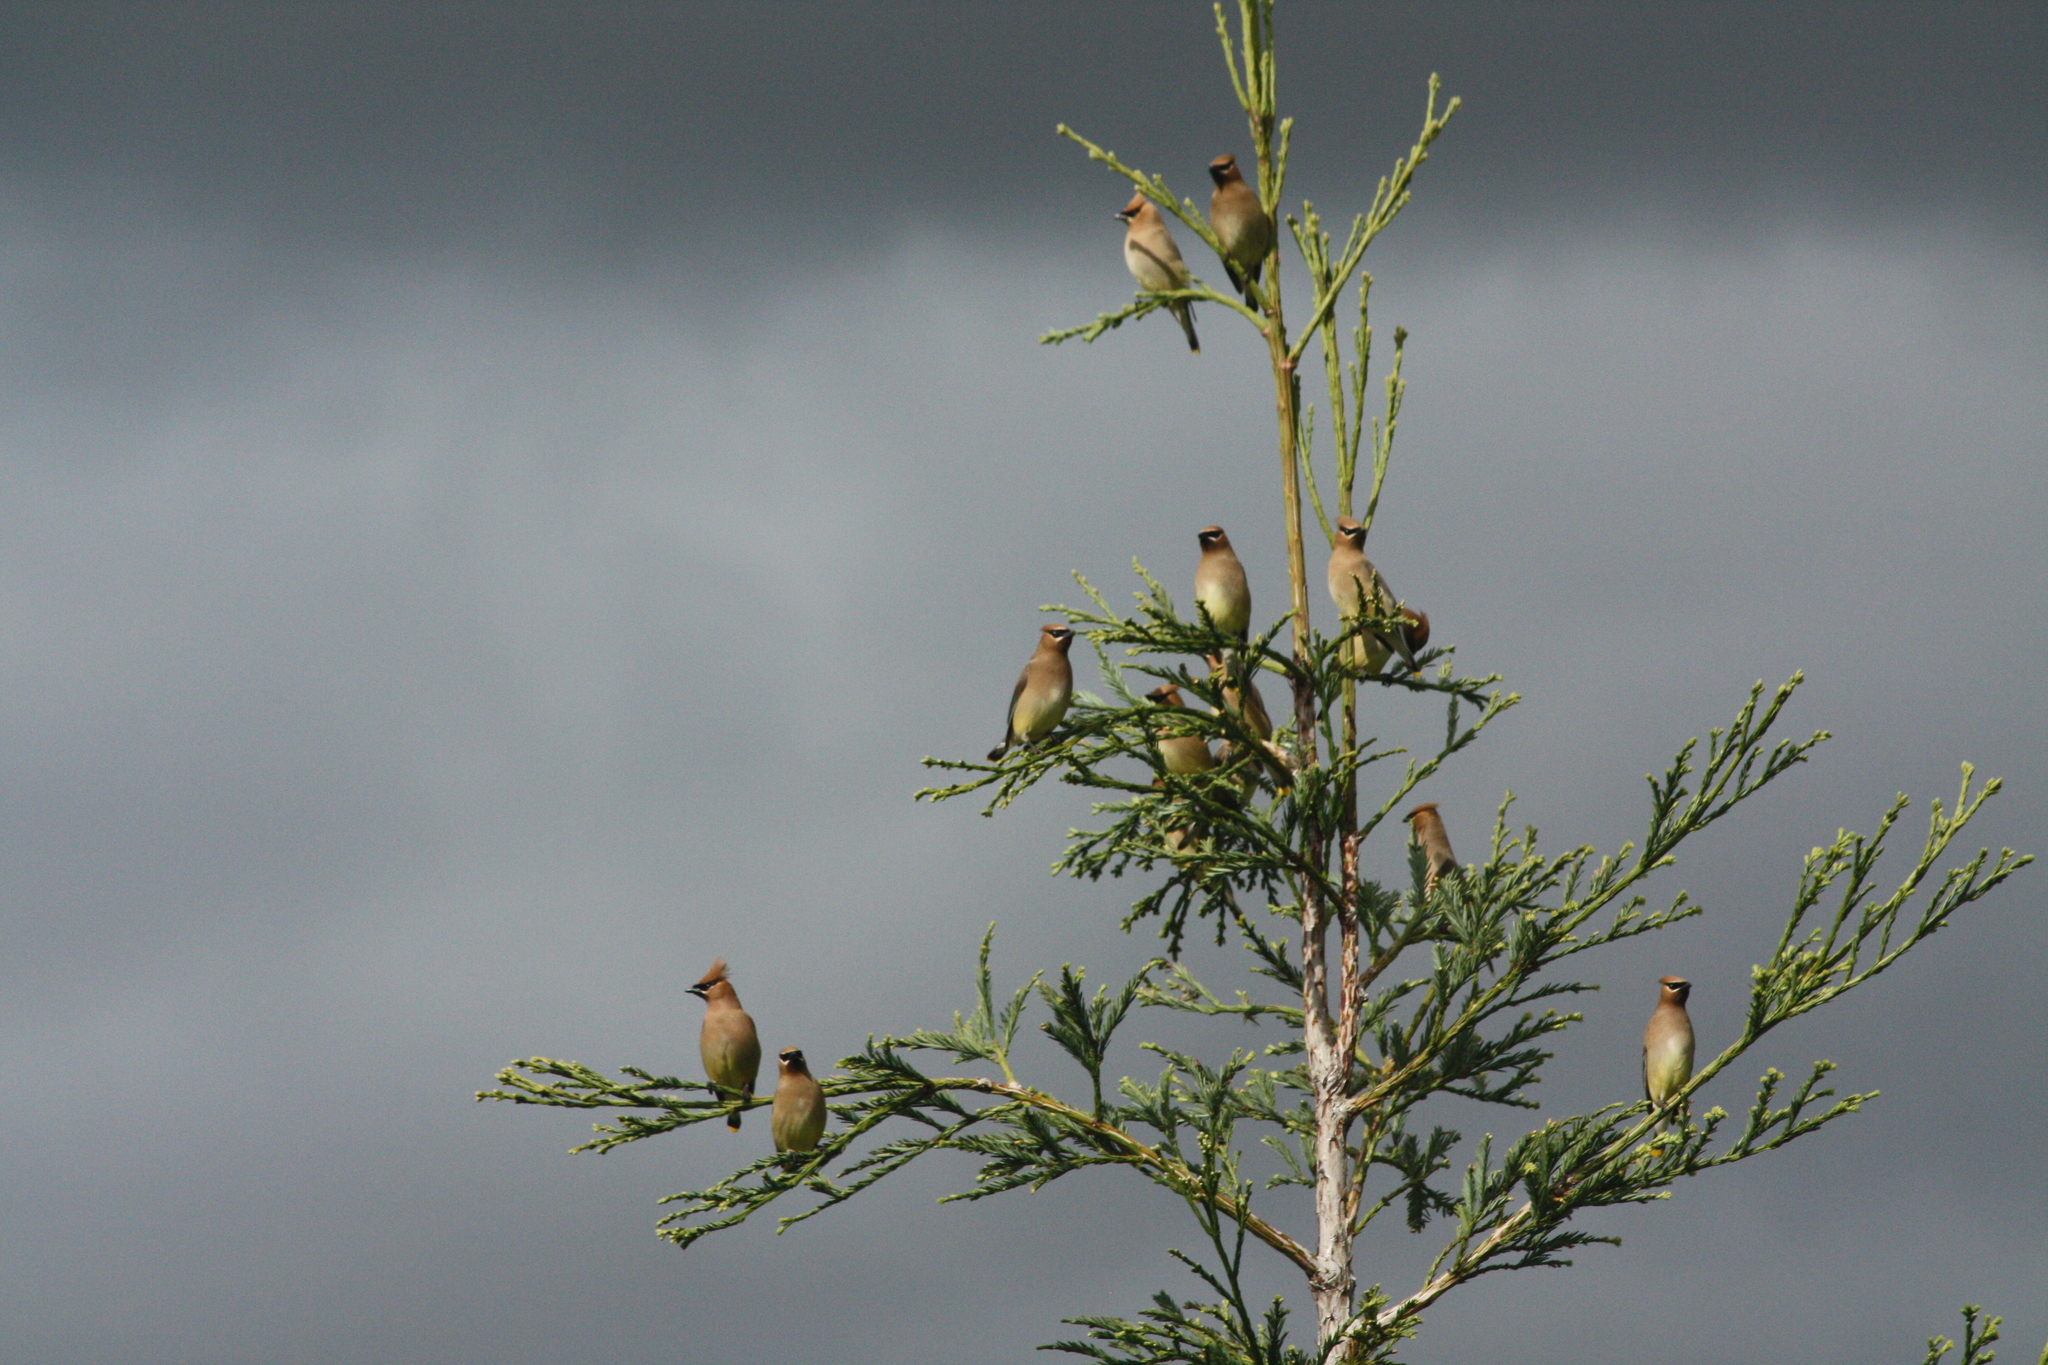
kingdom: Animalia
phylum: Chordata
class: Aves
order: Passeriformes
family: Bombycillidae
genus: Bombycilla
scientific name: Bombycilla cedrorum
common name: Cedar waxwing
